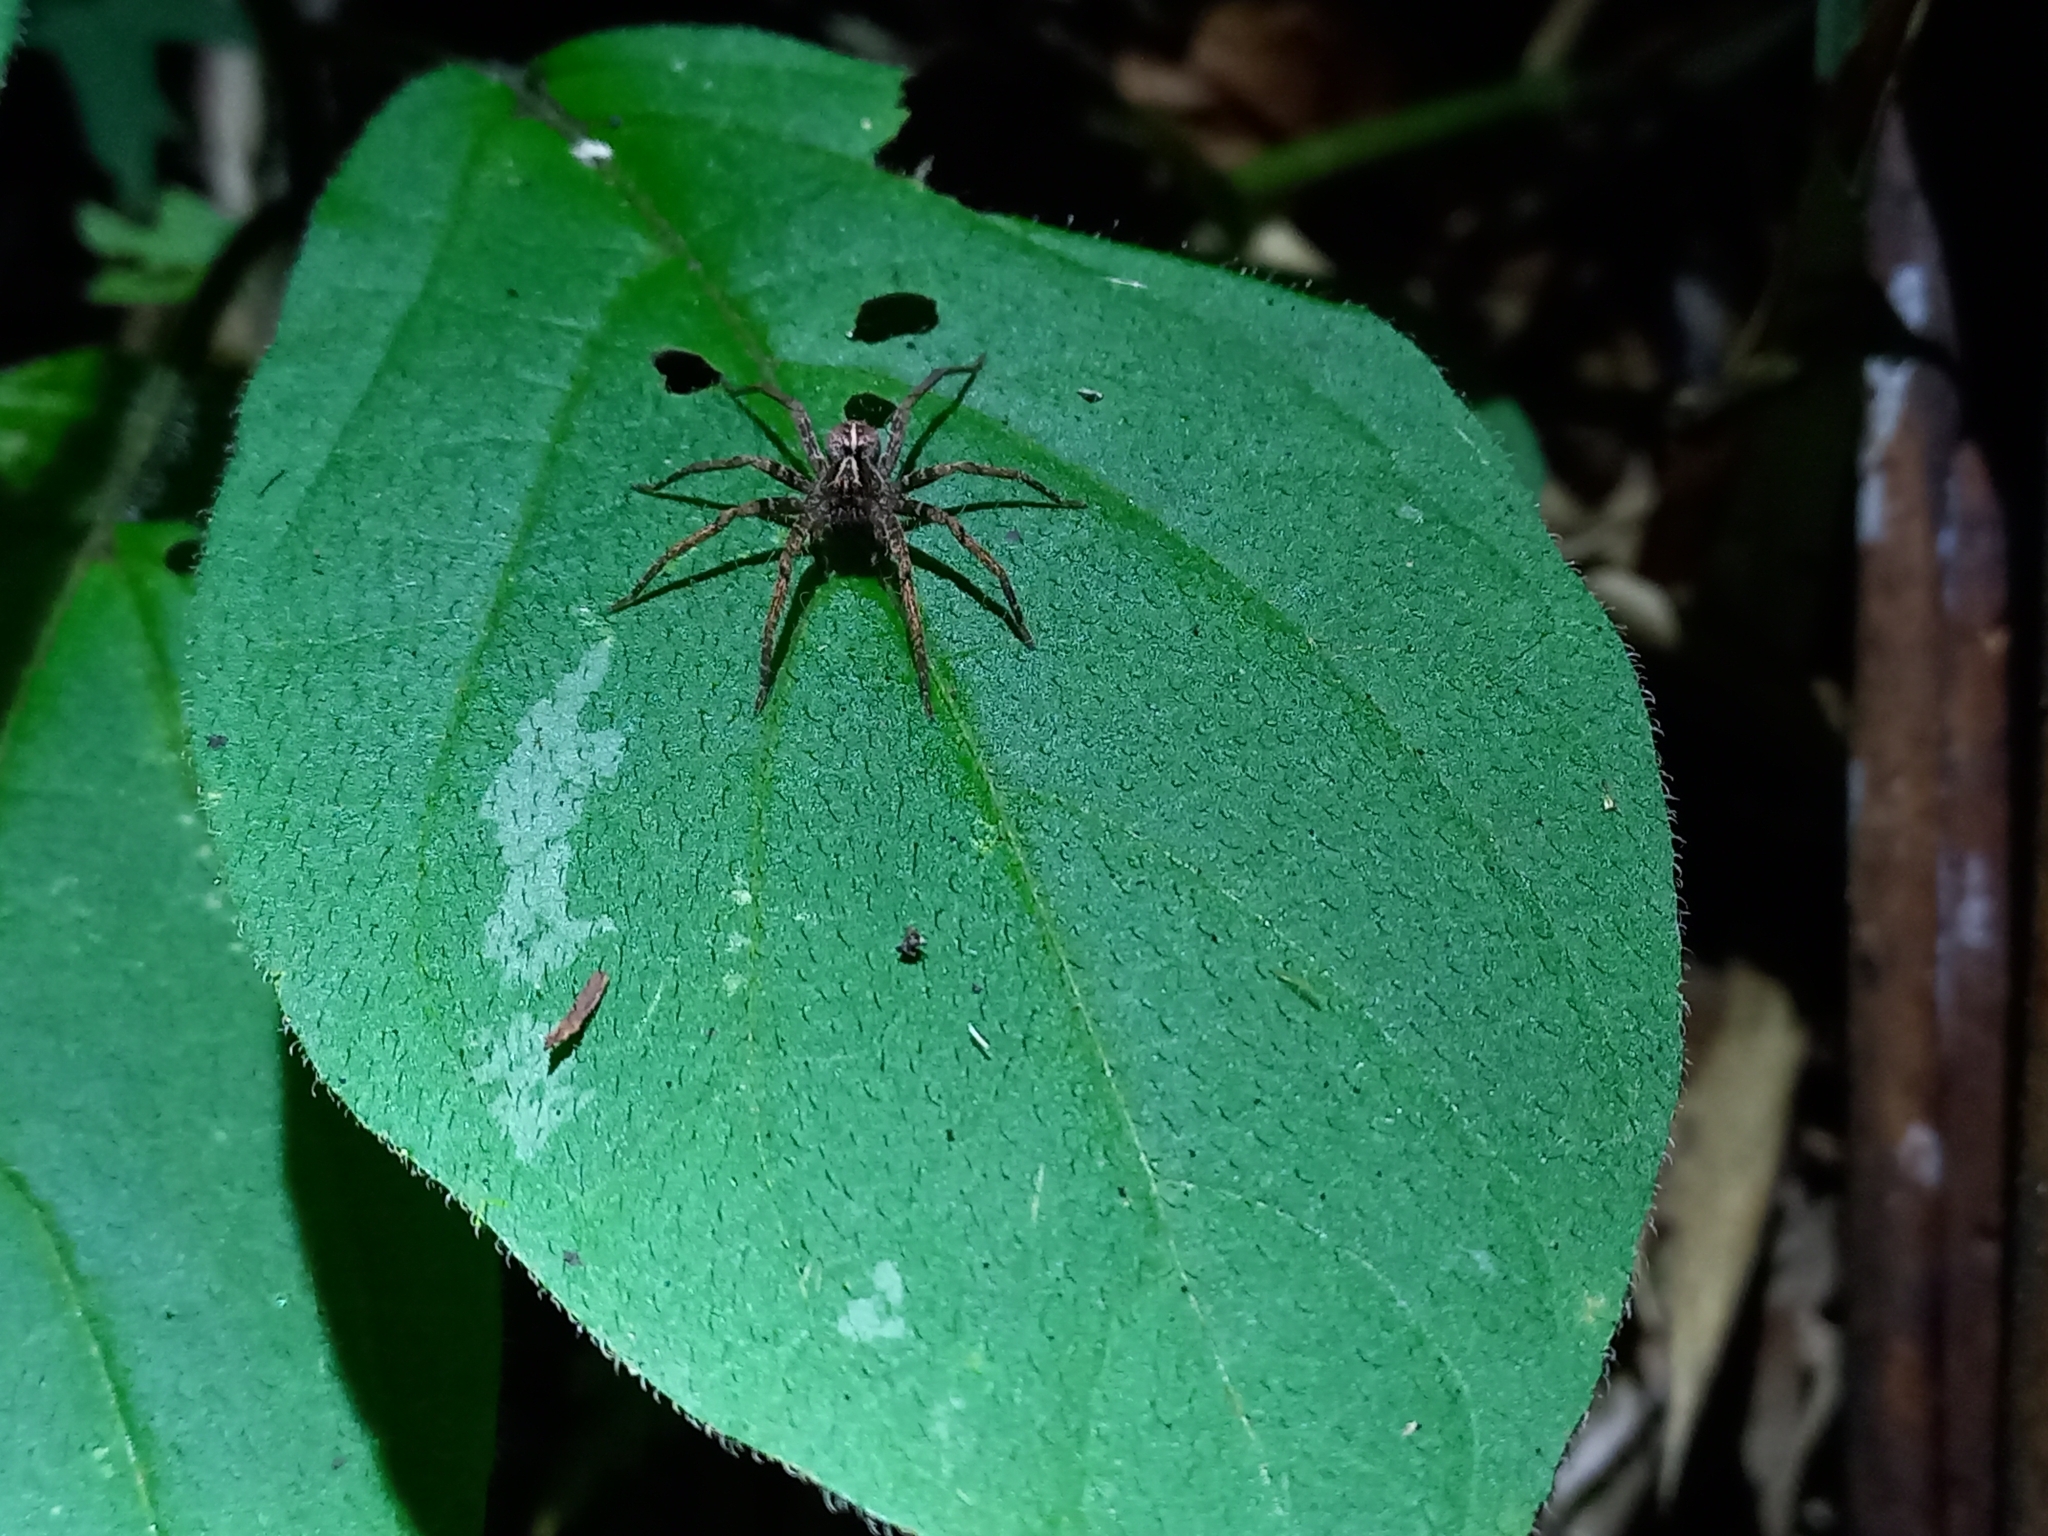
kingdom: Animalia
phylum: Arthropoda
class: Arachnida
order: Araneae
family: Ctenidae
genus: Chococtenus
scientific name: Chococtenus miserabilis
